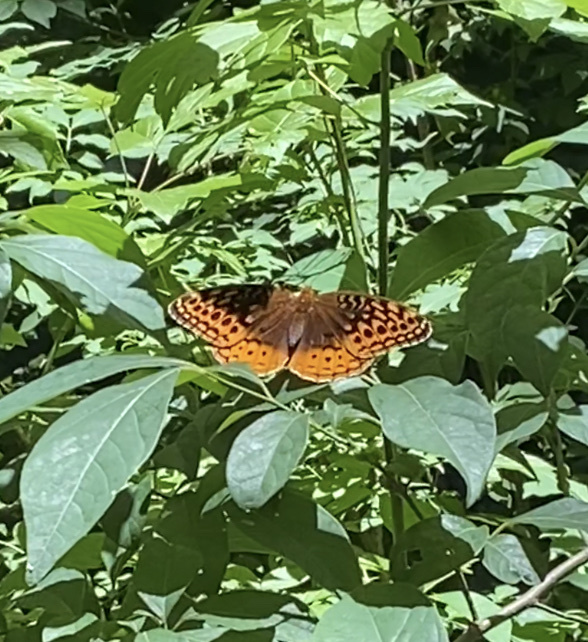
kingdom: Animalia
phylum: Arthropoda
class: Insecta
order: Lepidoptera
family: Nymphalidae
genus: Speyeria
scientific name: Speyeria cybele
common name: Great spangled fritillary
